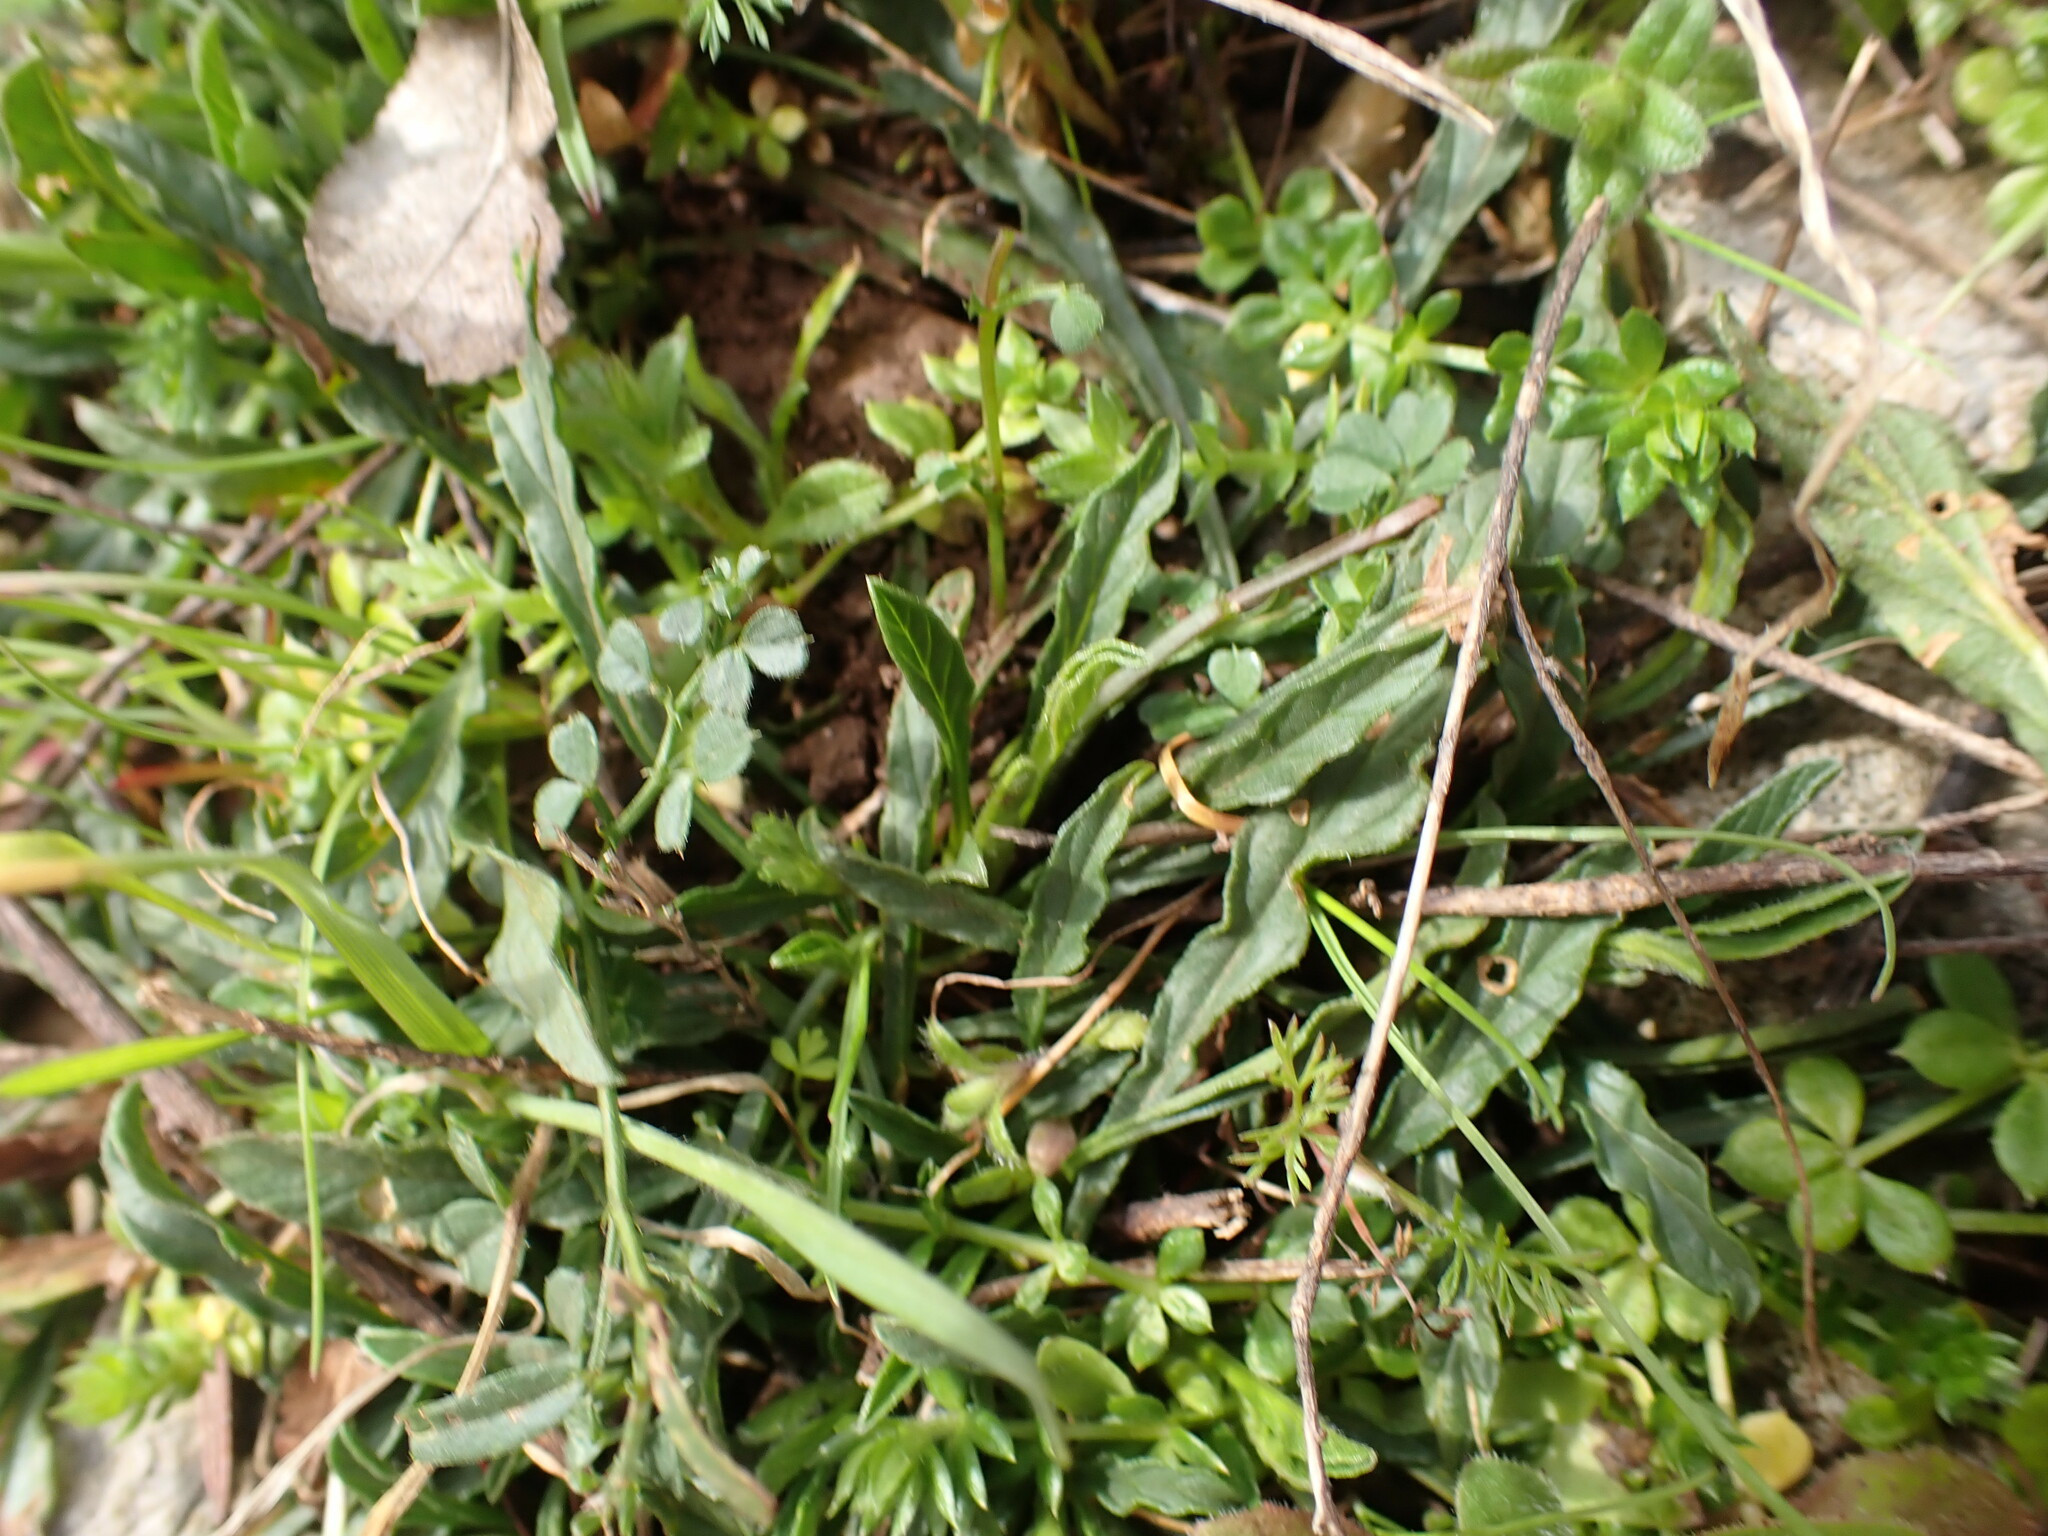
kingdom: Plantae
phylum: Tracheophyta
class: Magnoliopsida
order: Solanales
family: Convolvulaceae
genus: Convolvulus
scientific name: Convolvulus cantabrica
